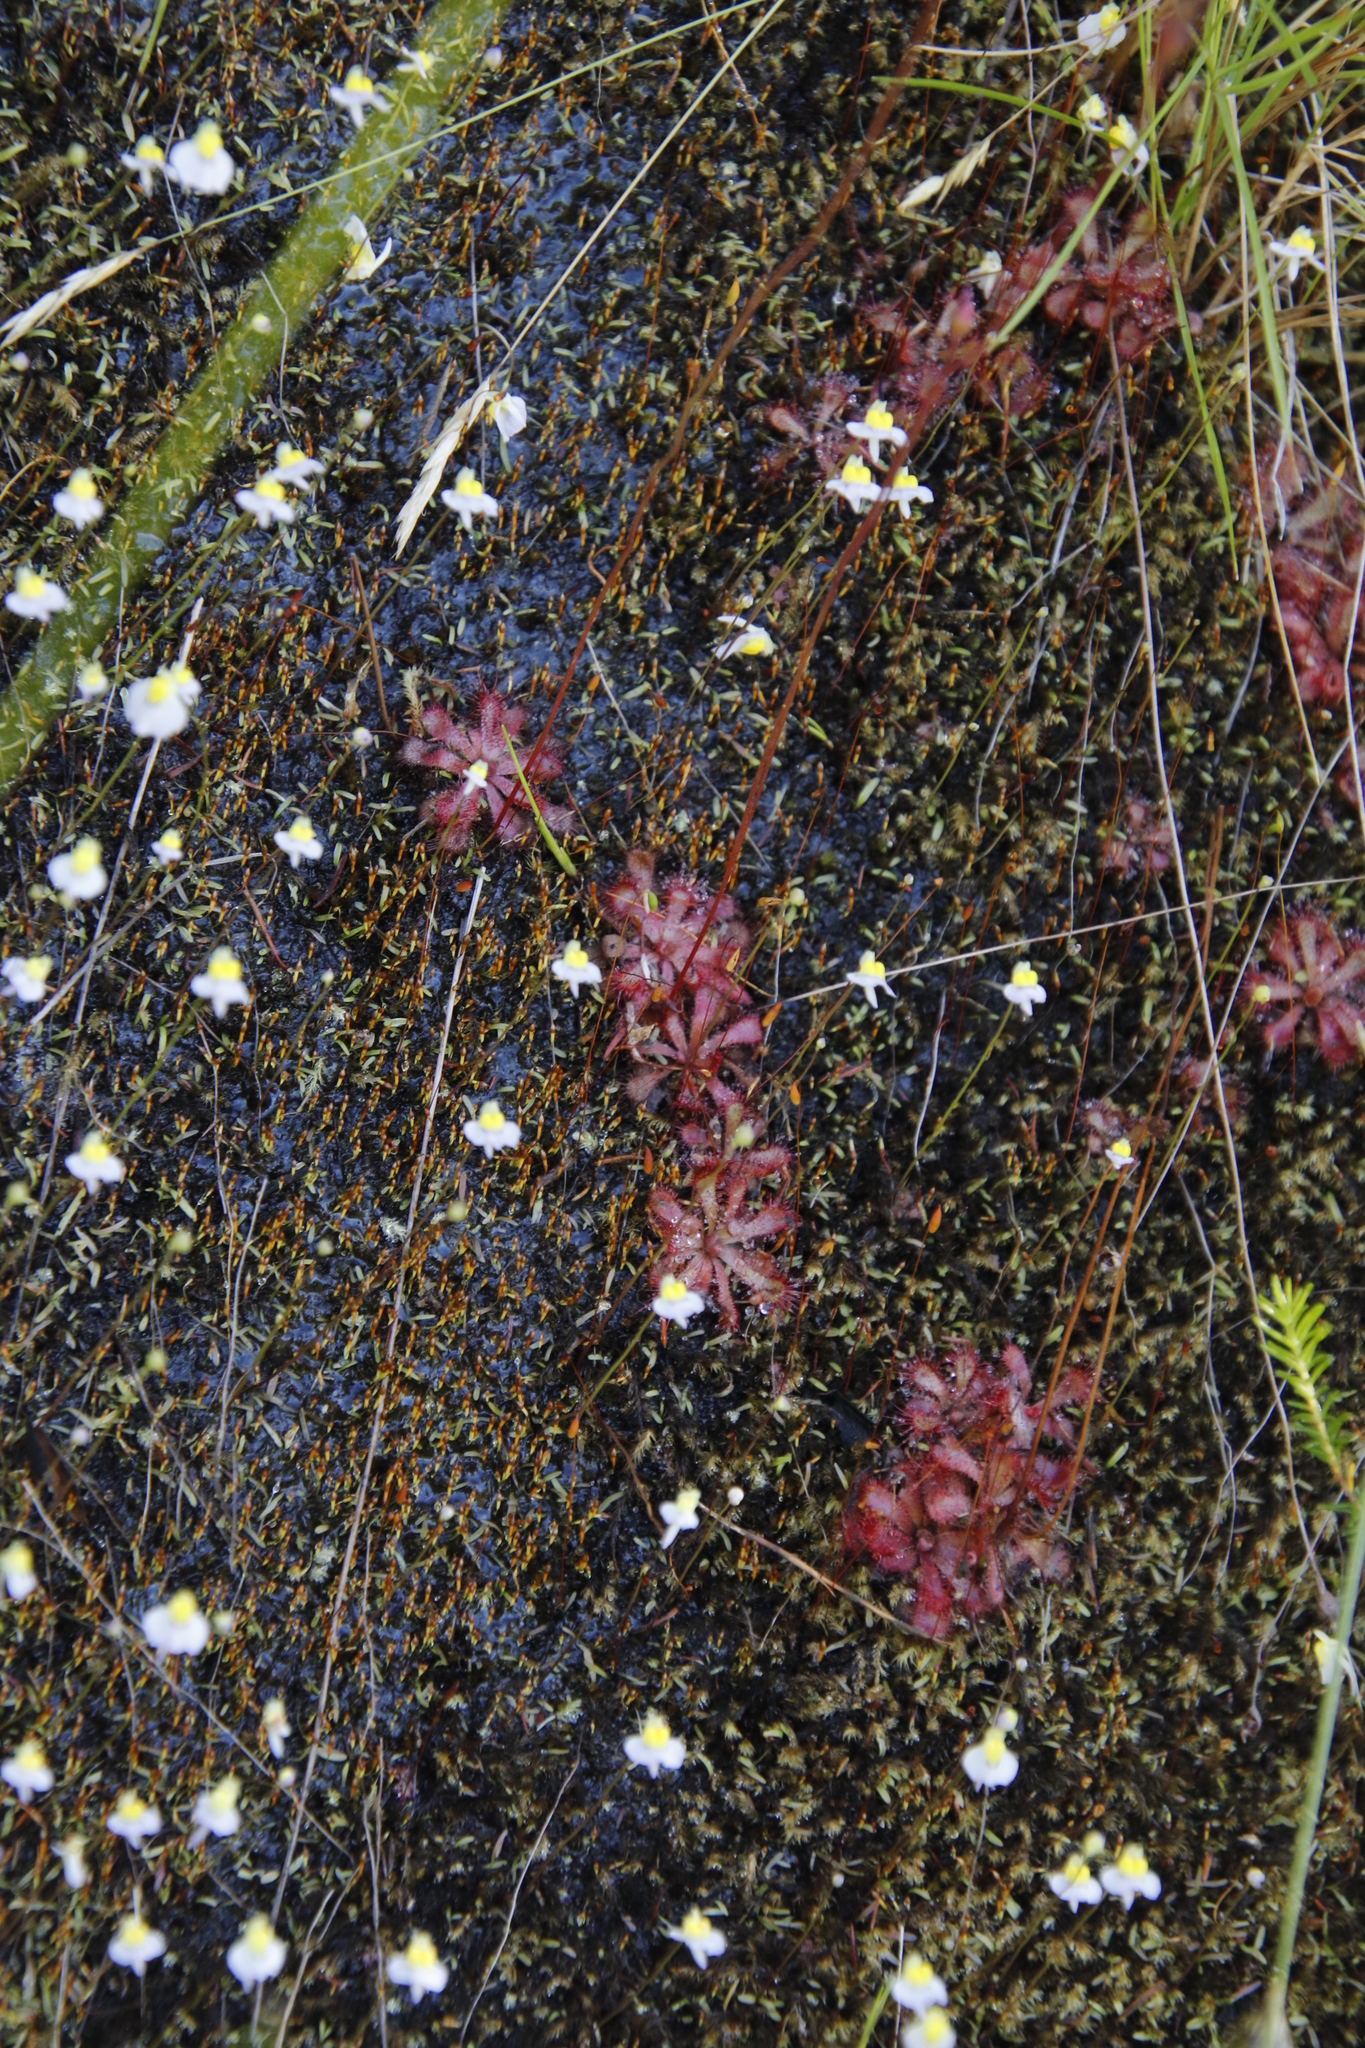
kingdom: Plantae
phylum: Tracheophyta
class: Magnoliopsida
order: Lamiales
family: Lentibulariaceae
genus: Utricularia
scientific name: Utricularia bisquamata
